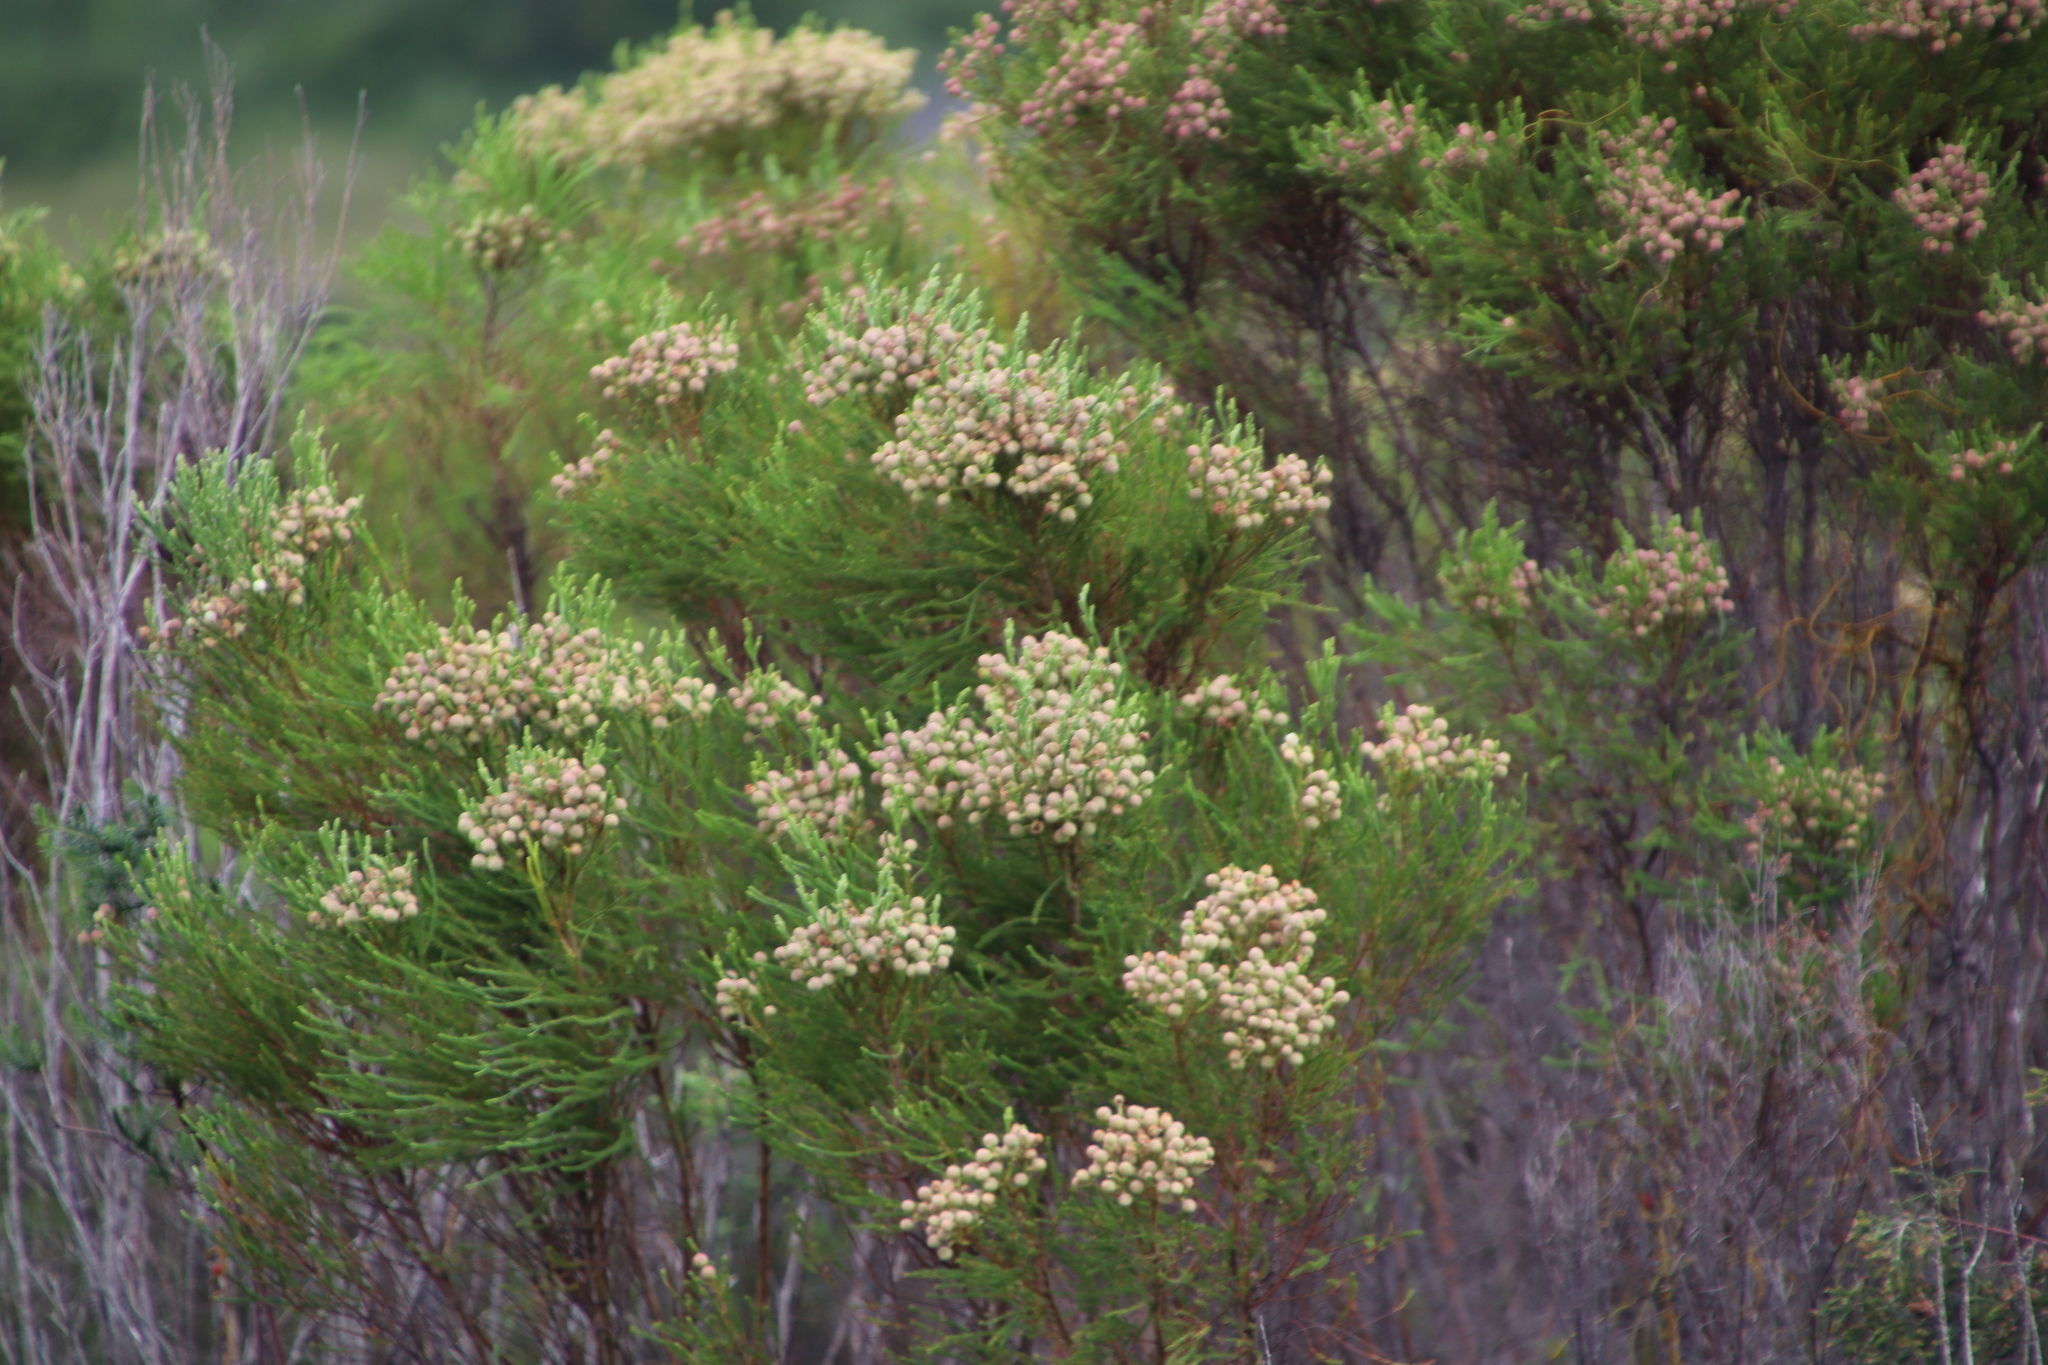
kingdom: Plantae
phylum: Tracheophyta
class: Magnoliopsida
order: Bruniales
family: Bruniaceae
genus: Berzelia
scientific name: Berzelia lanuginosa
